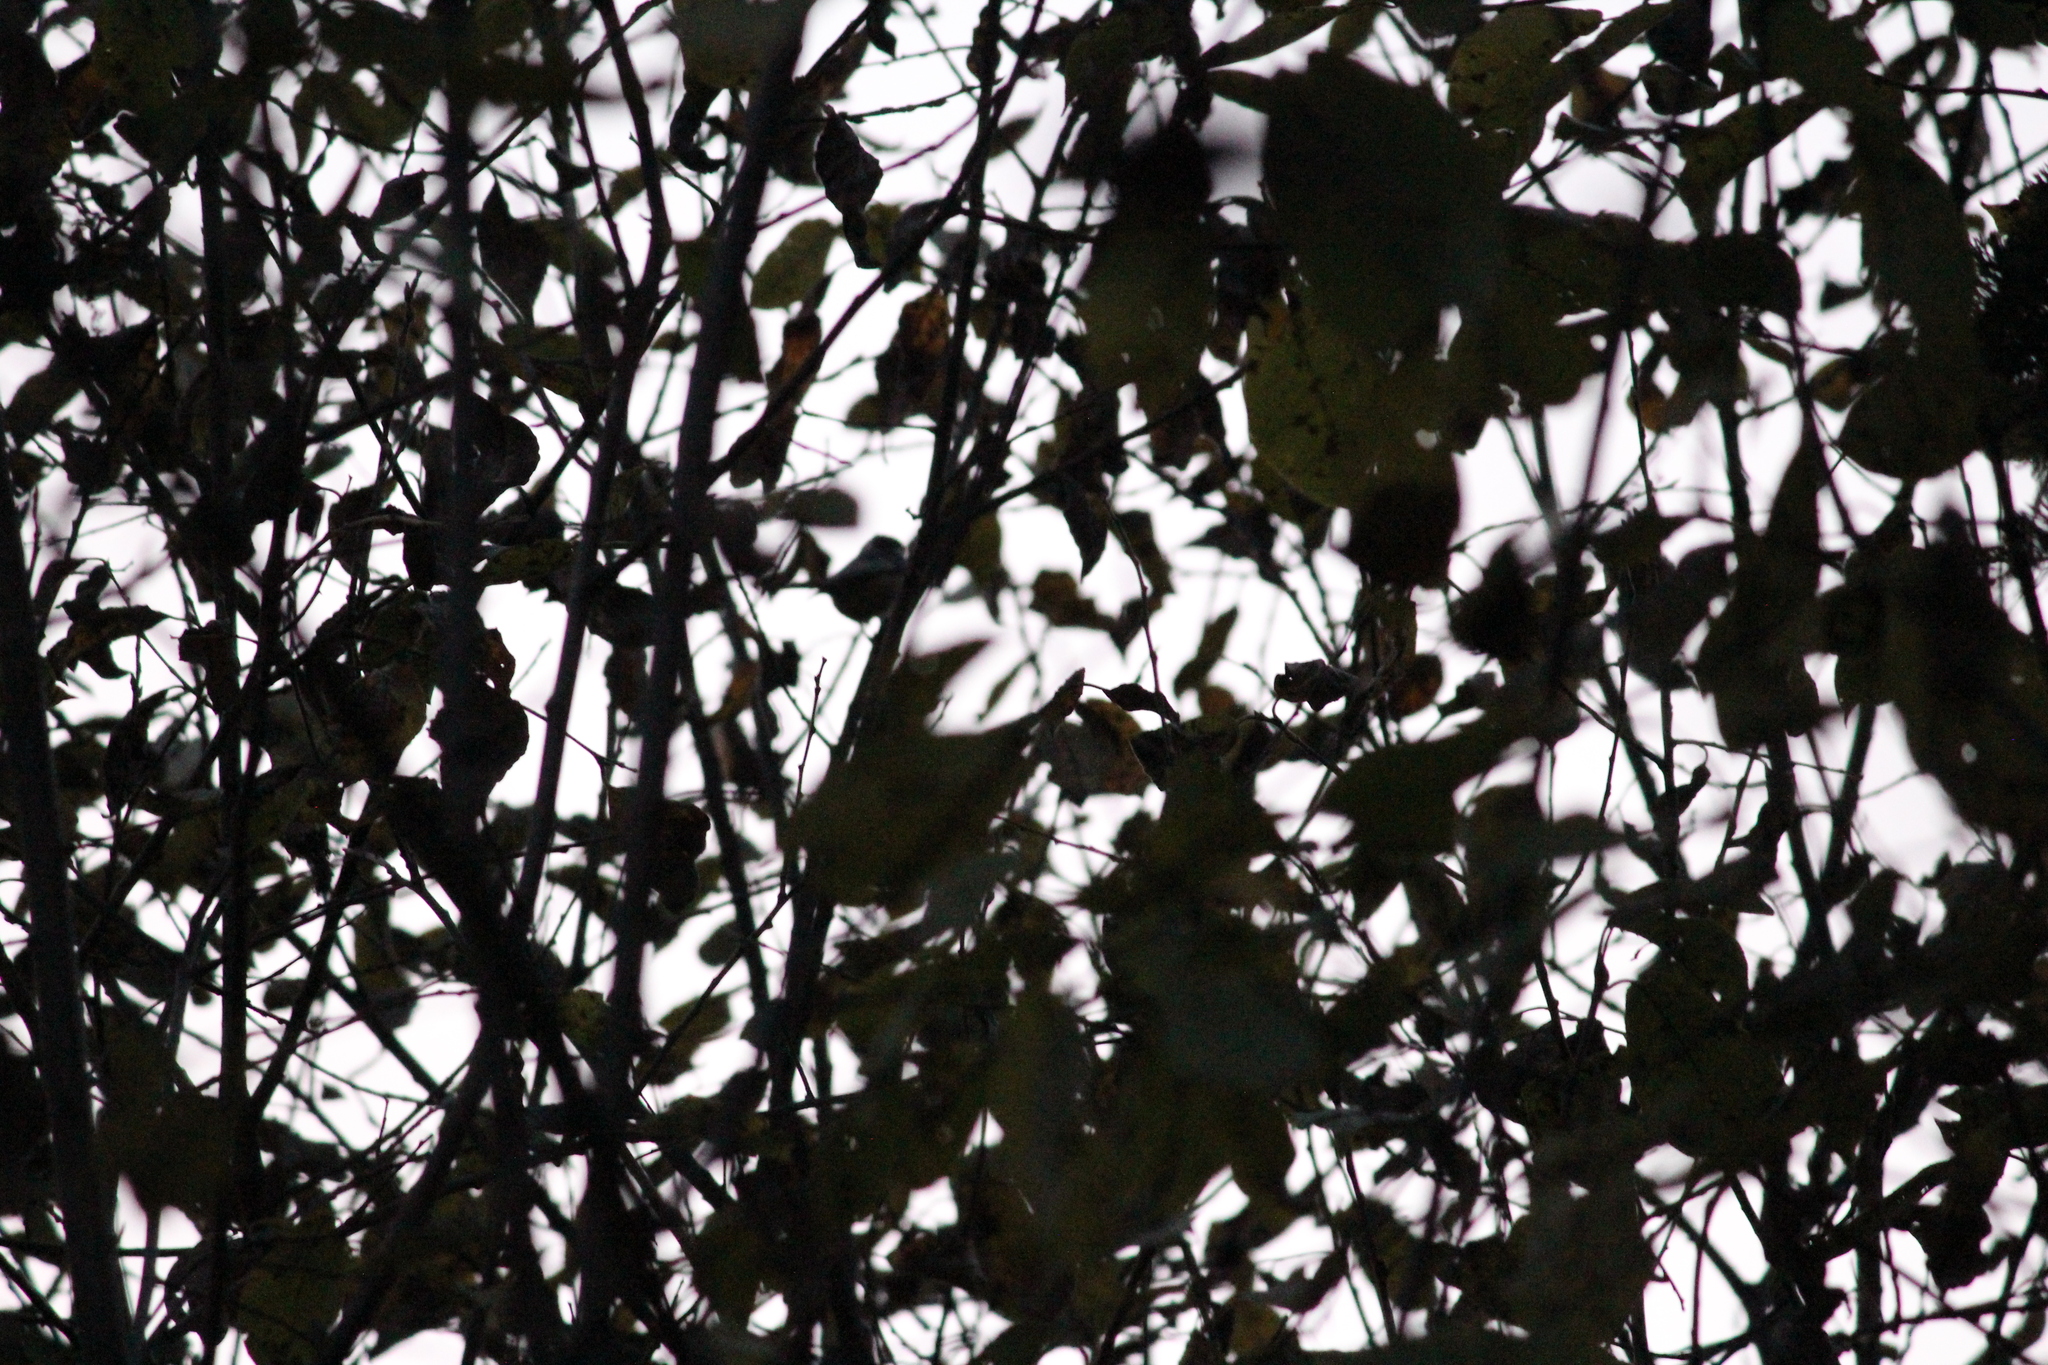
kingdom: Animalia
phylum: Chordata
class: Aves
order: Passeriformes
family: Paridae
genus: Periparus
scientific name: Periparus ater
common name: Coal tit
